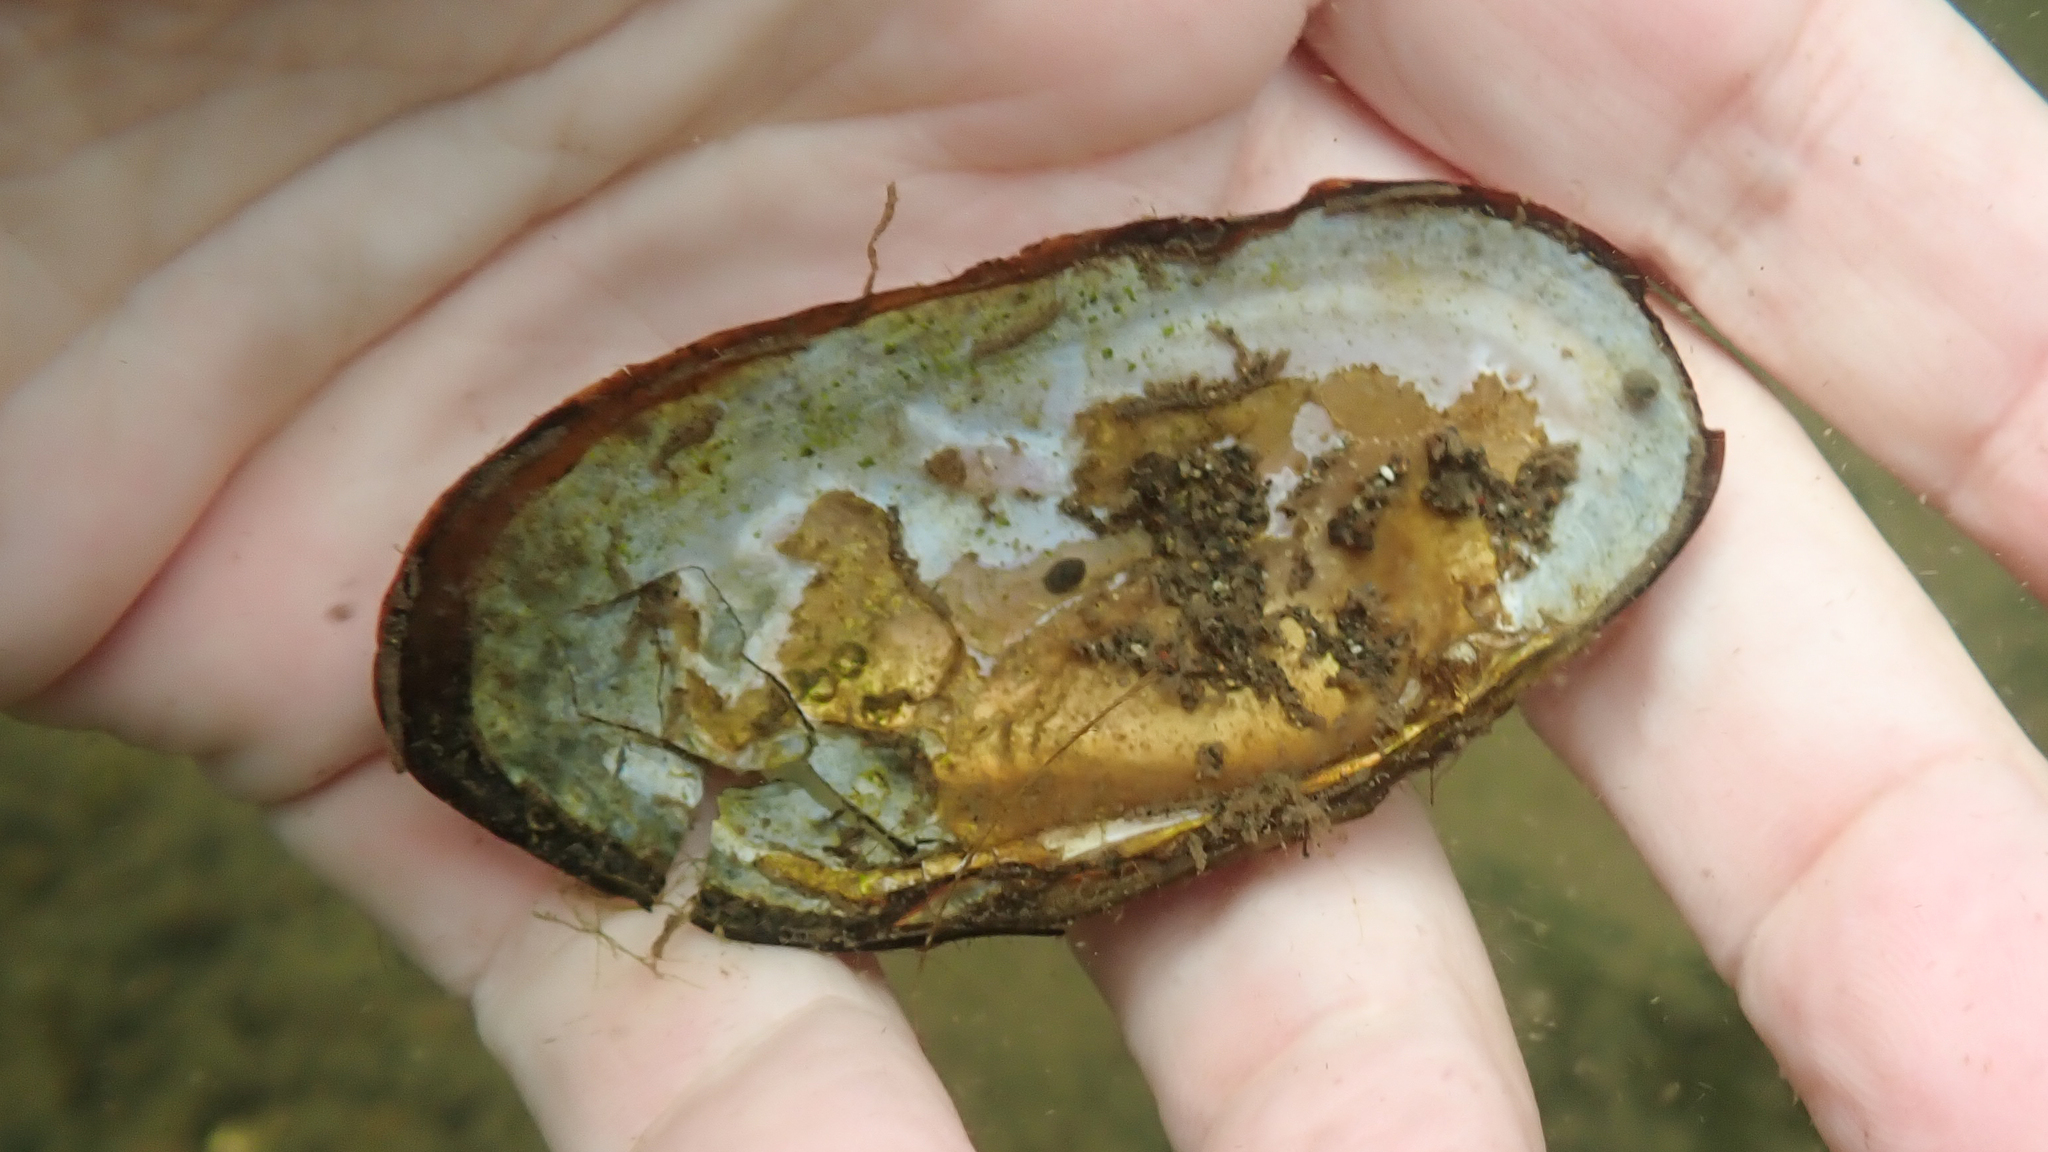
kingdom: Animalia
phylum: Mollusca
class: Bivalvia
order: Unionida
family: Margaritiferidae
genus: Margaritifera
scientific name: Margaritifera falcata
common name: Western pearlshell
